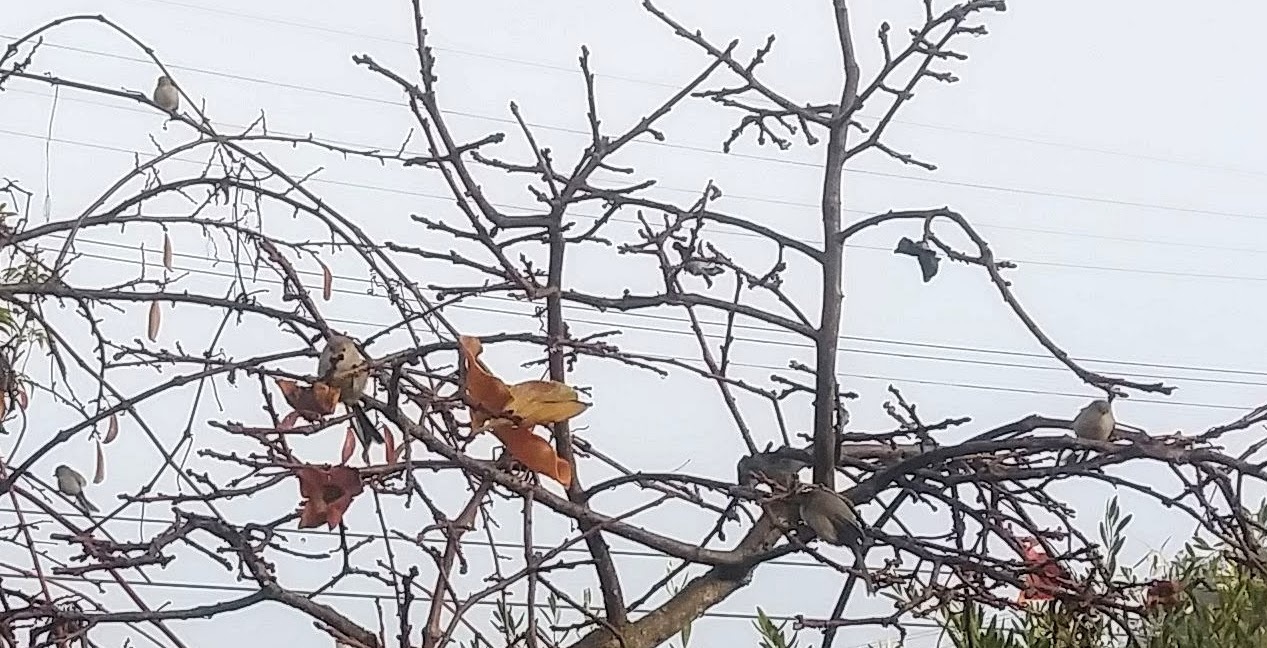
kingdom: Animalia
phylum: Chordata
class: Aves
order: Passeriformes
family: Aegithalidae
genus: Psaltriparus
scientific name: Psaltriparus minimus
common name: American bushtit
